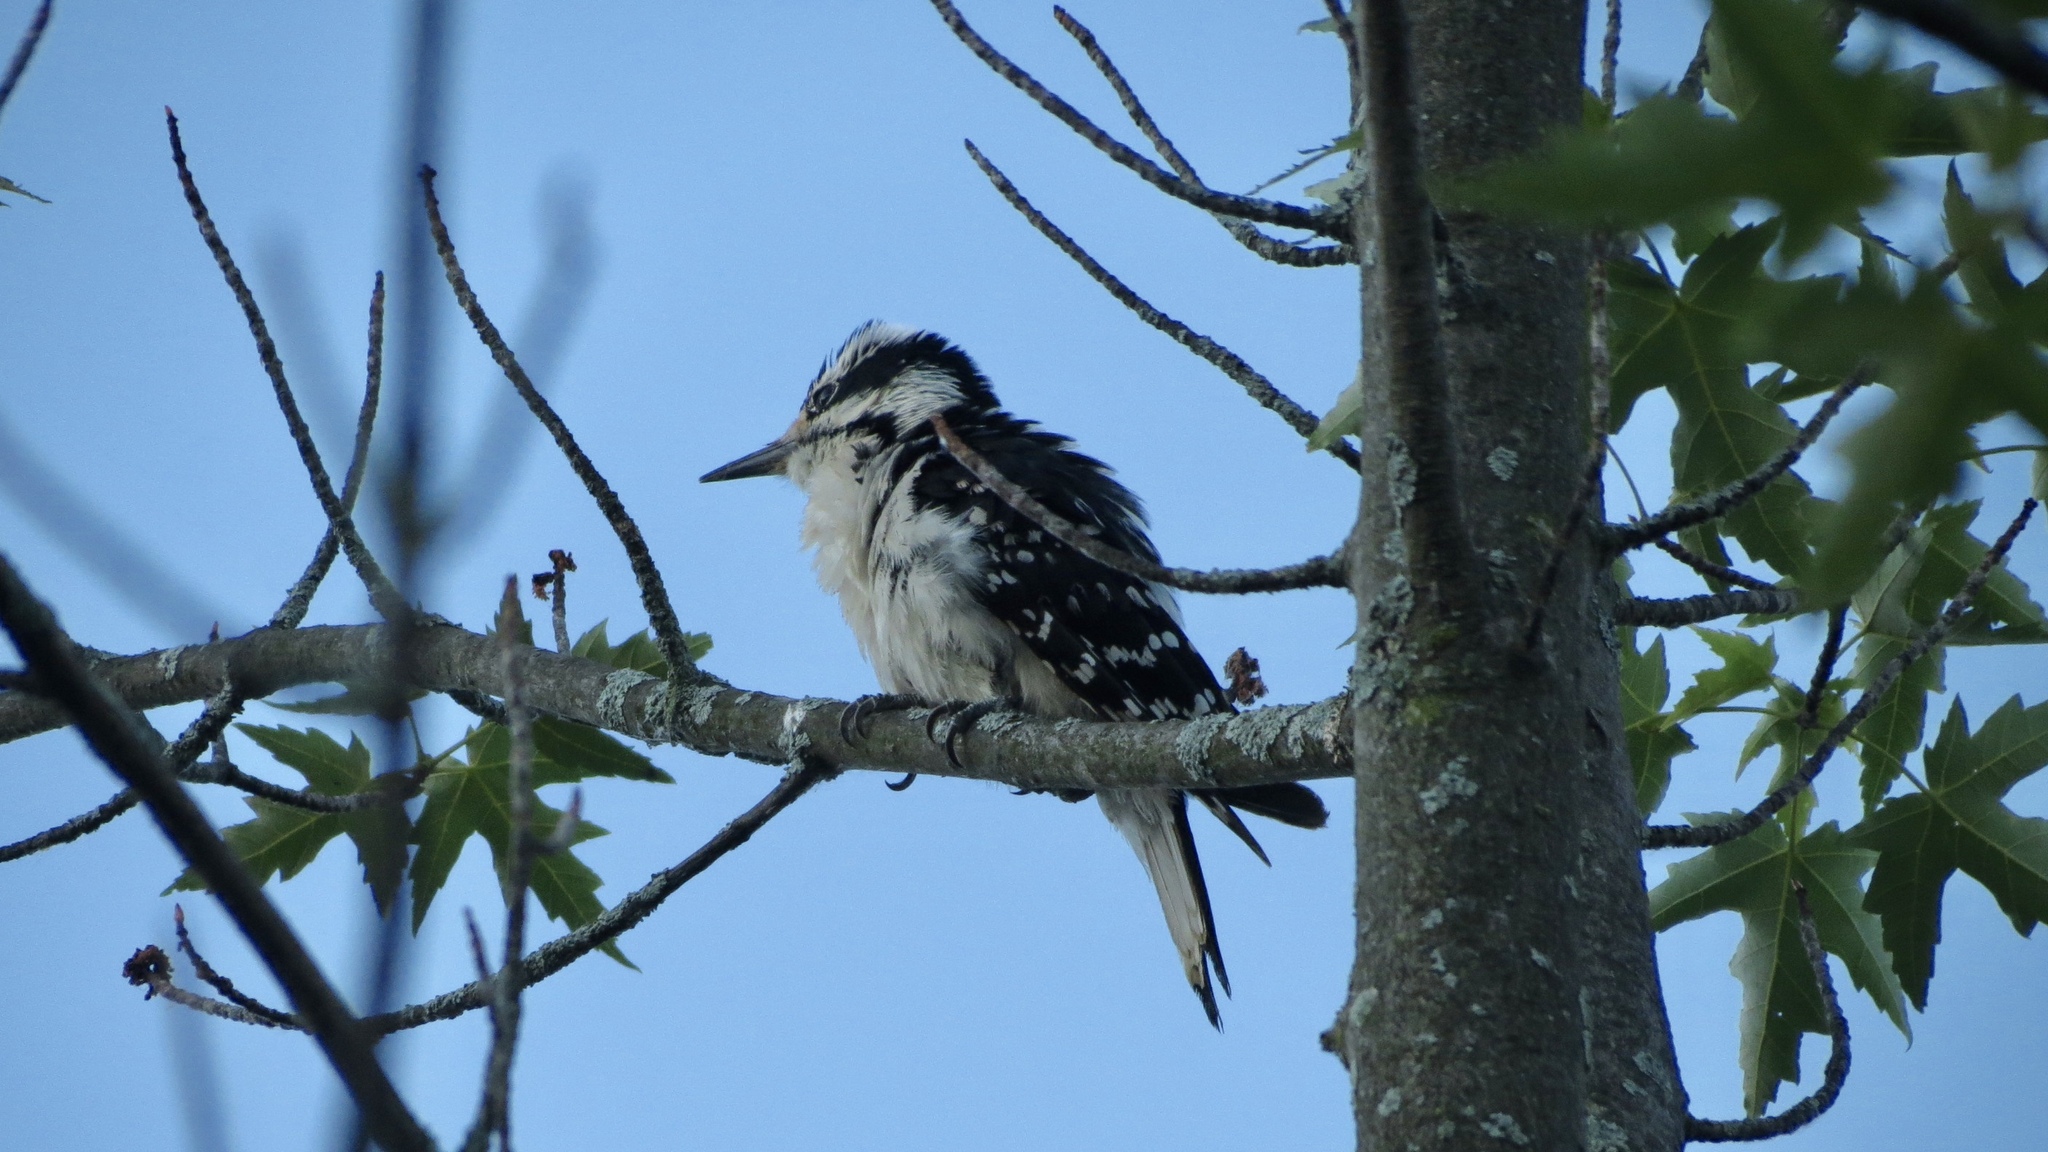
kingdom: Animalia
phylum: Chordata
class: Aves
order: Piciformes
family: Picidae
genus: Leuconotopicus
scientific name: Leuconotopicus villosus
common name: Hairy woodpecker
